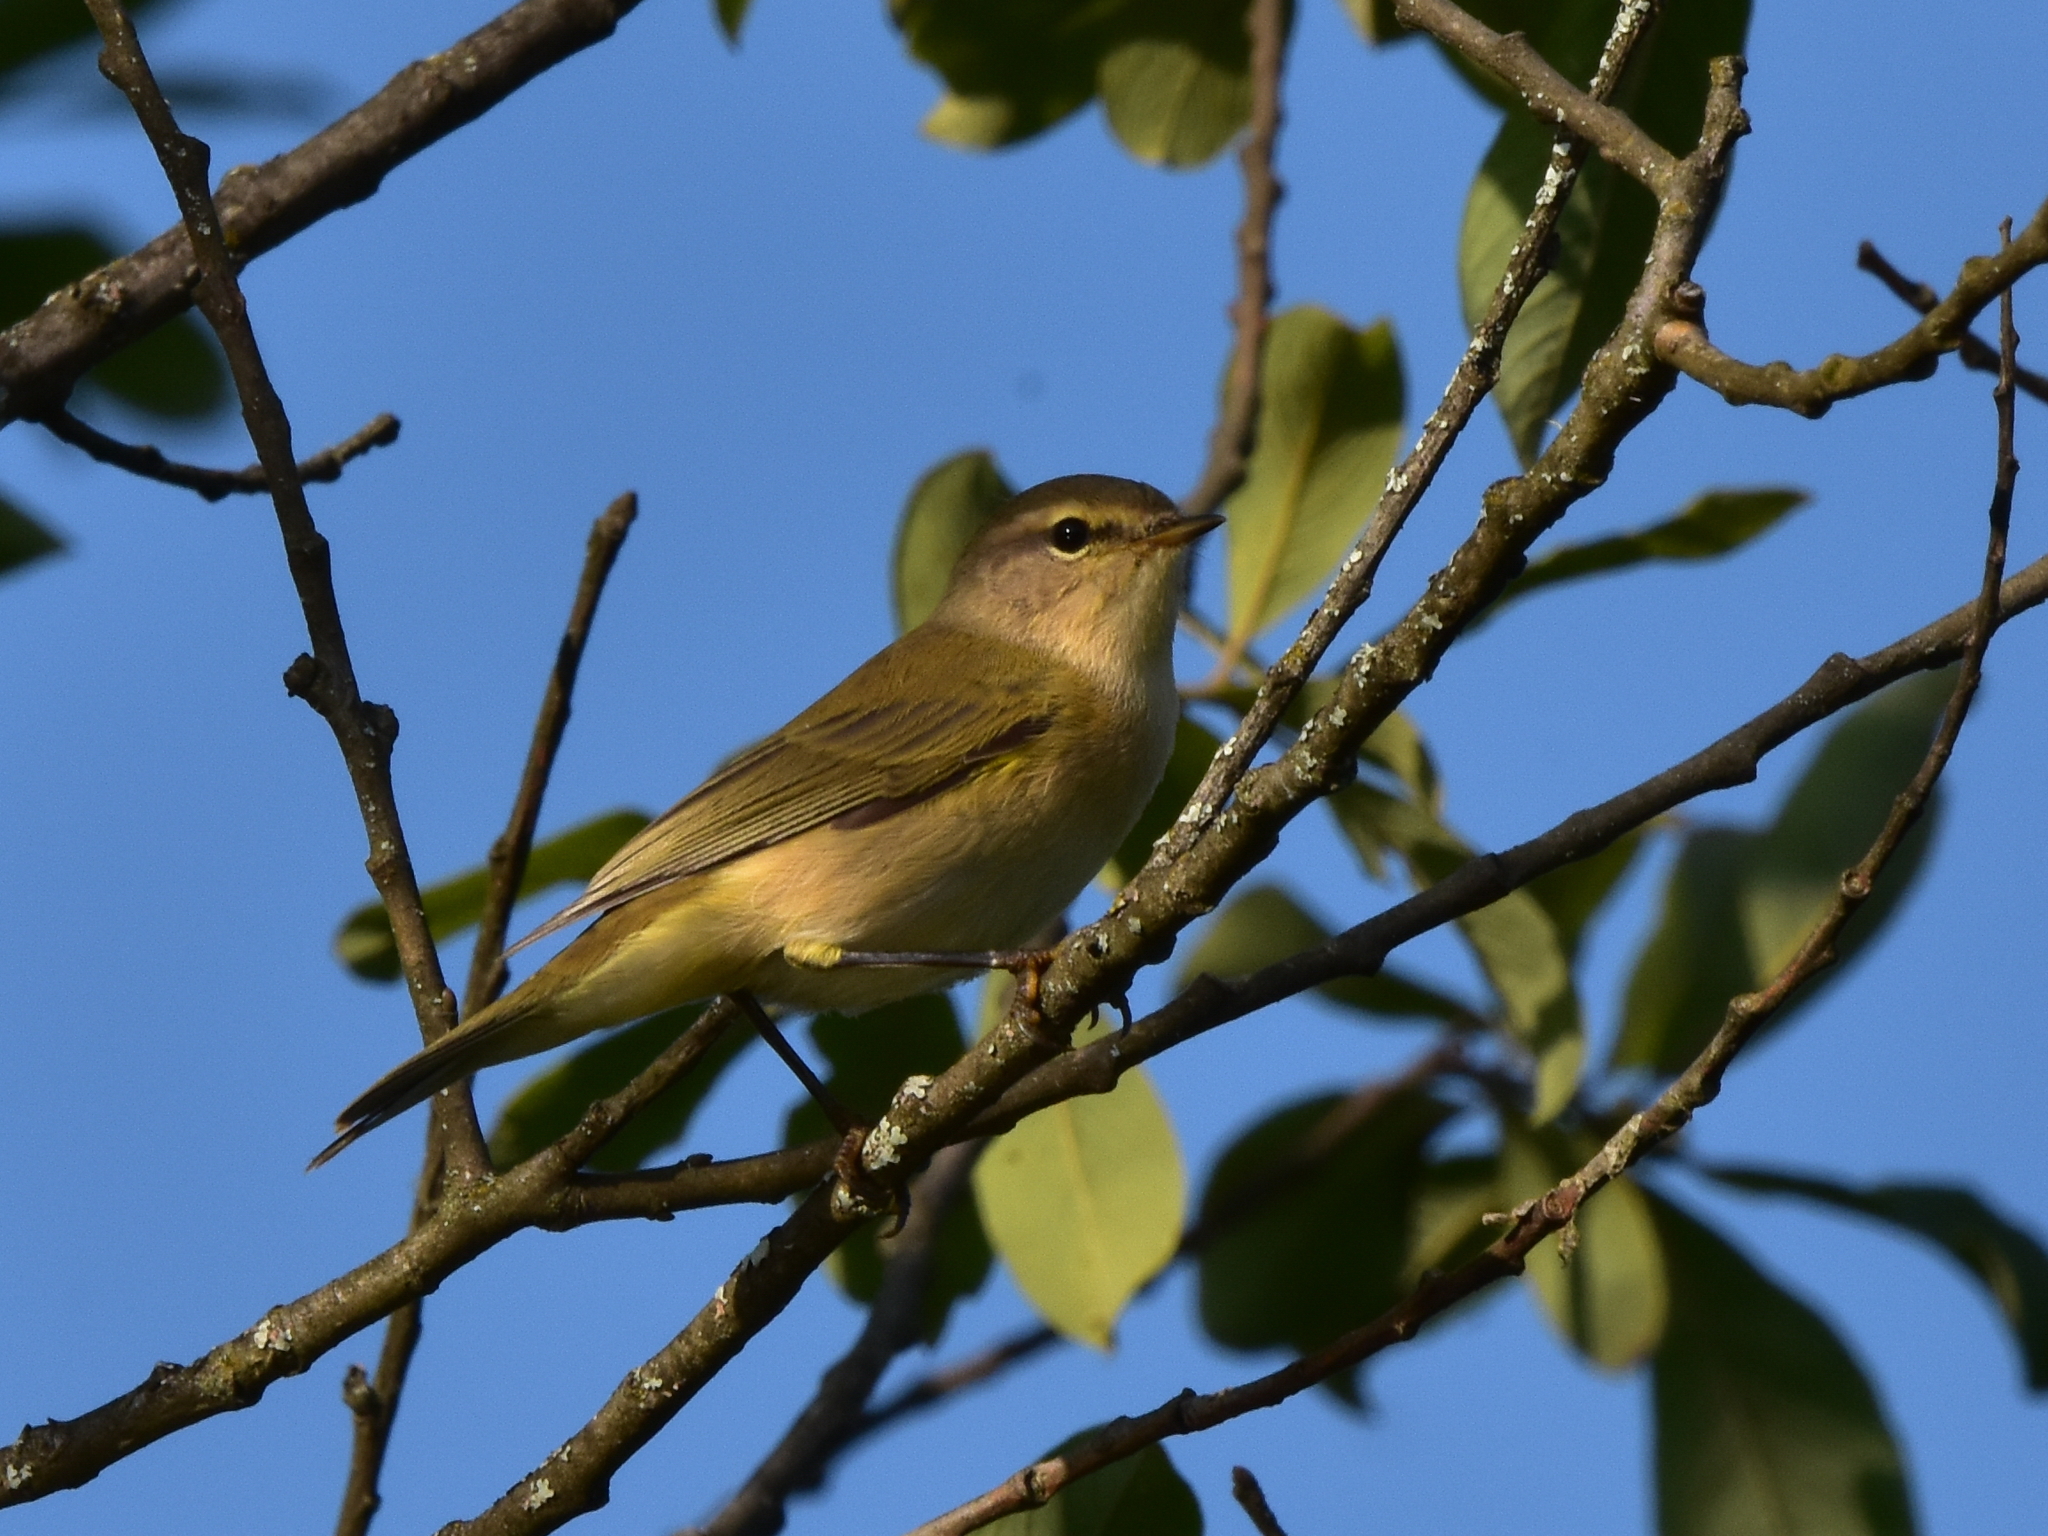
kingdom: Animalia
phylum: Chordata
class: Aves
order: Passeriformes
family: Phylloscopidae
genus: Phylloscopus
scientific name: Phylloscopus collybita
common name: Common chiffchaff
